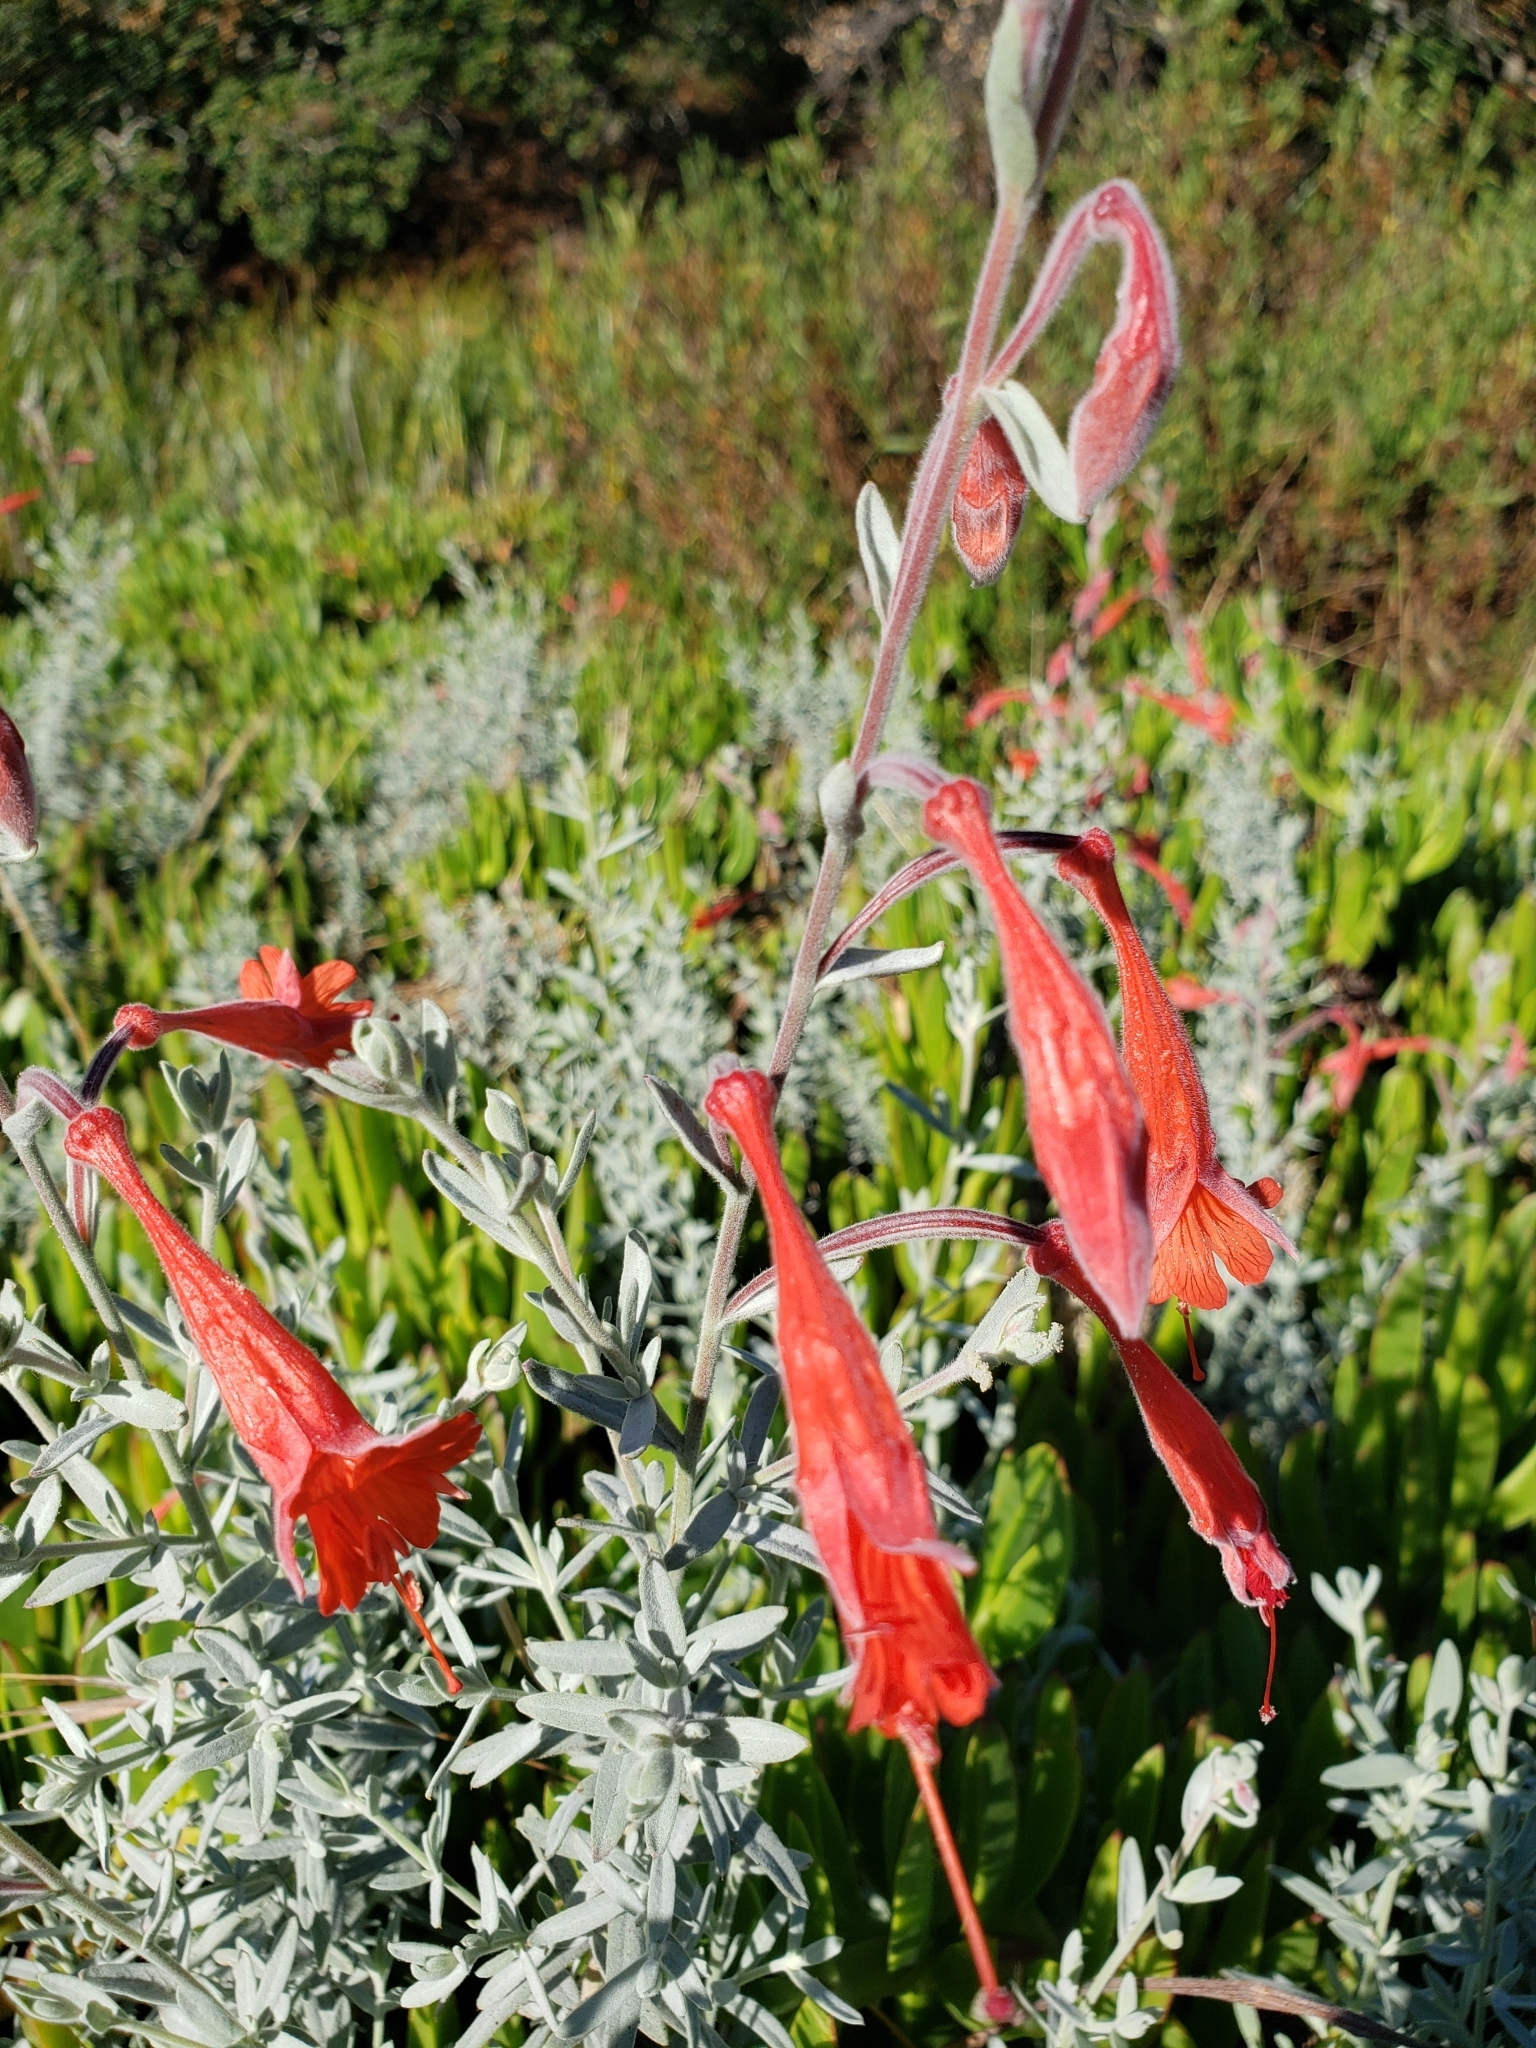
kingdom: Plantae
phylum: Tracheophyta
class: Magnoliopsida
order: Myrtales
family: Onagraceae
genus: Epilobium
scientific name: Epilobium canum
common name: California-fuchsia
